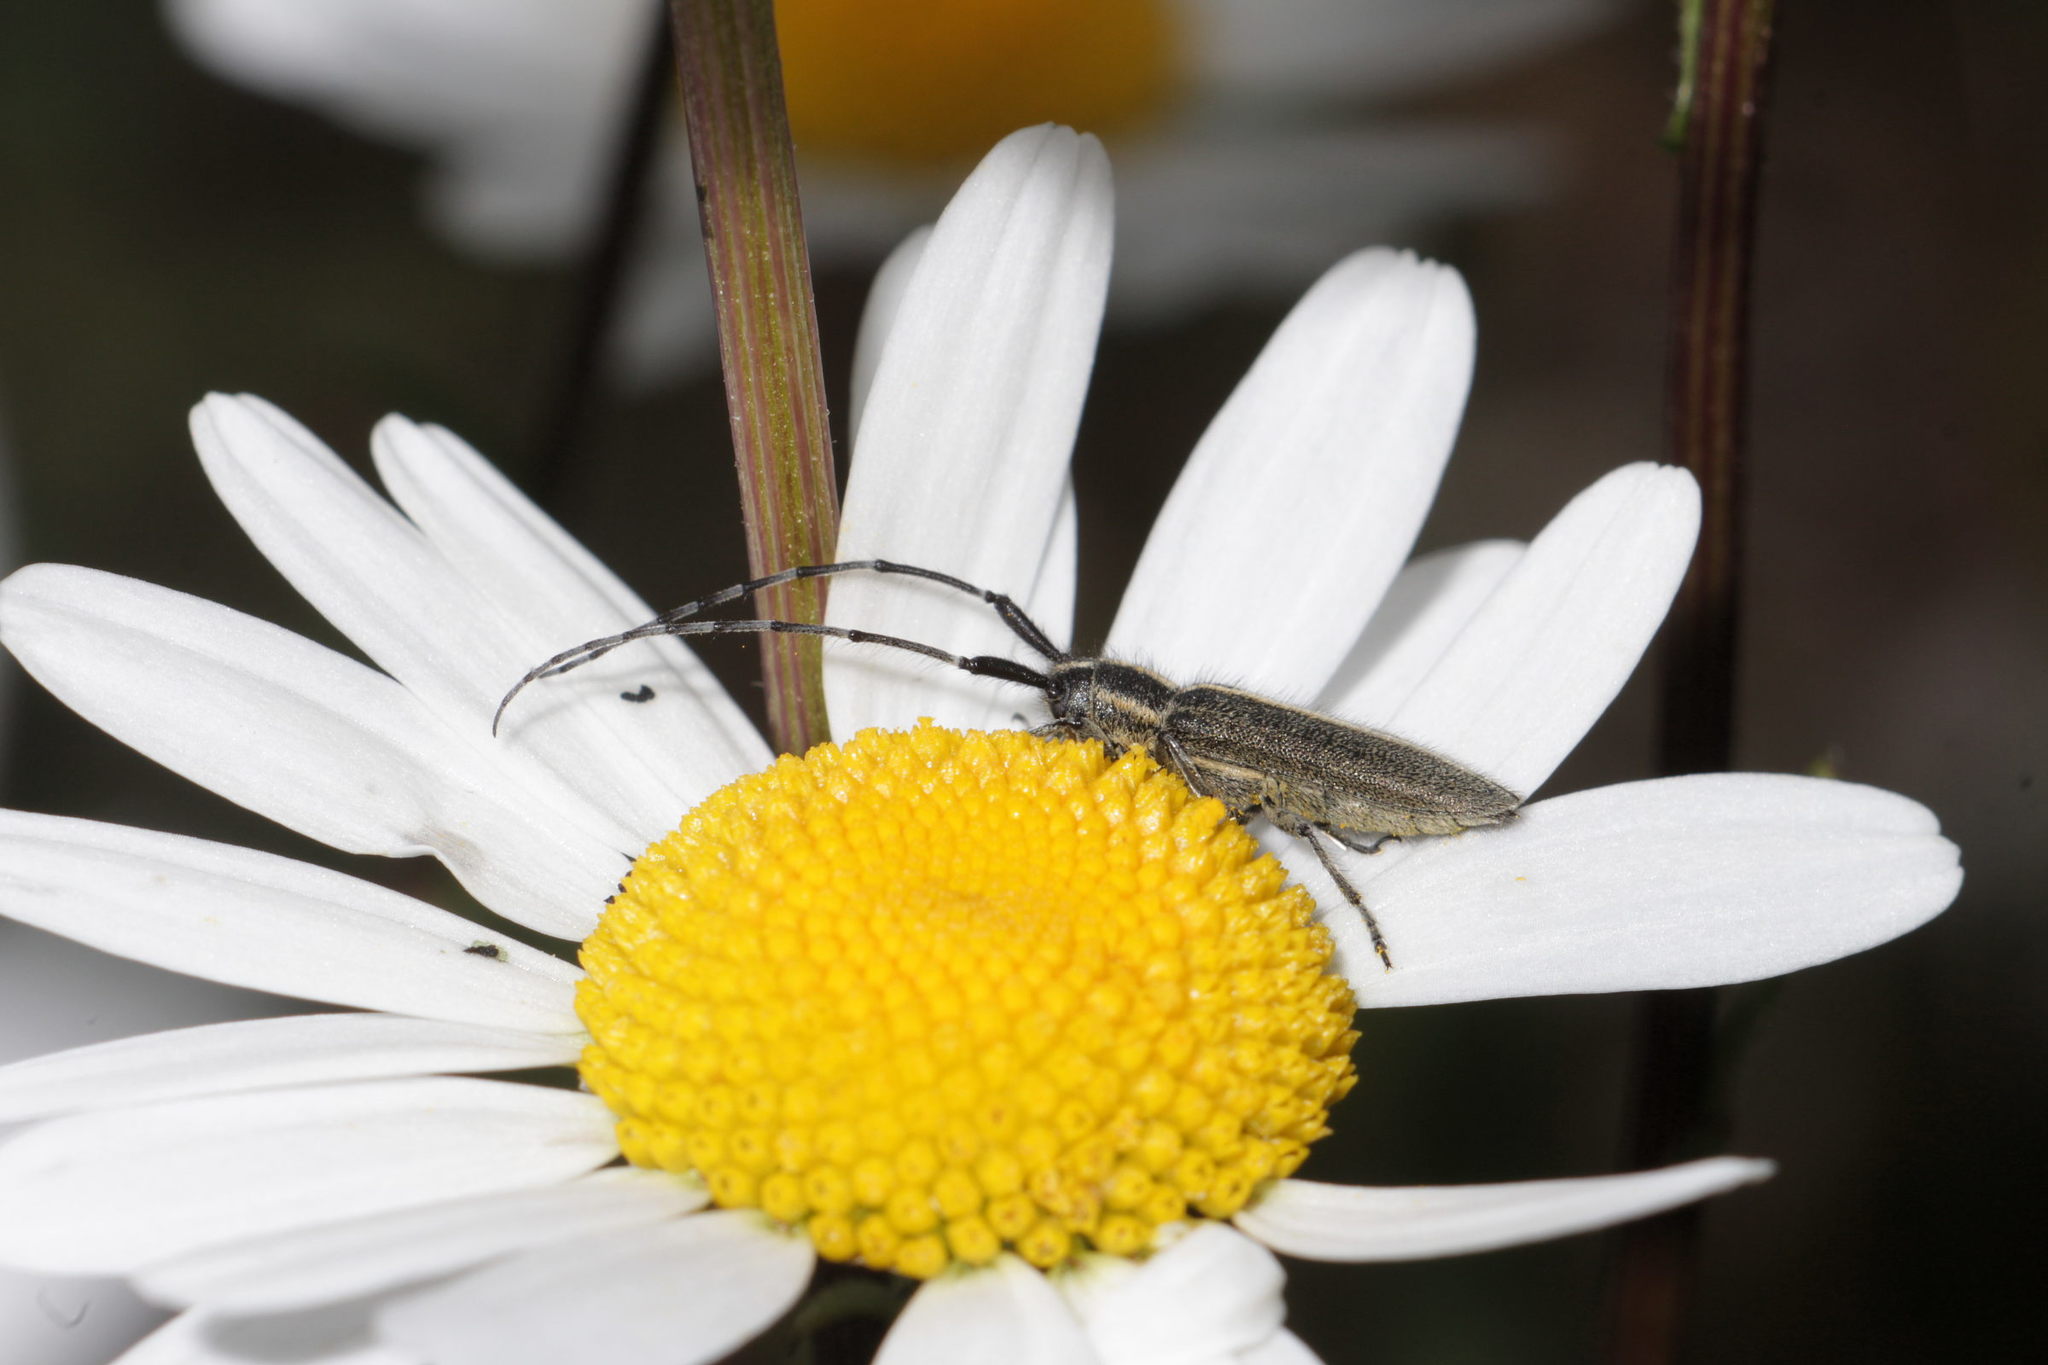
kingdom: Animalia
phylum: Arthropoda
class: Insecta
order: Coleoptera
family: Cerambycidae
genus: Agapanthia
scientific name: Agapanthia cardui
